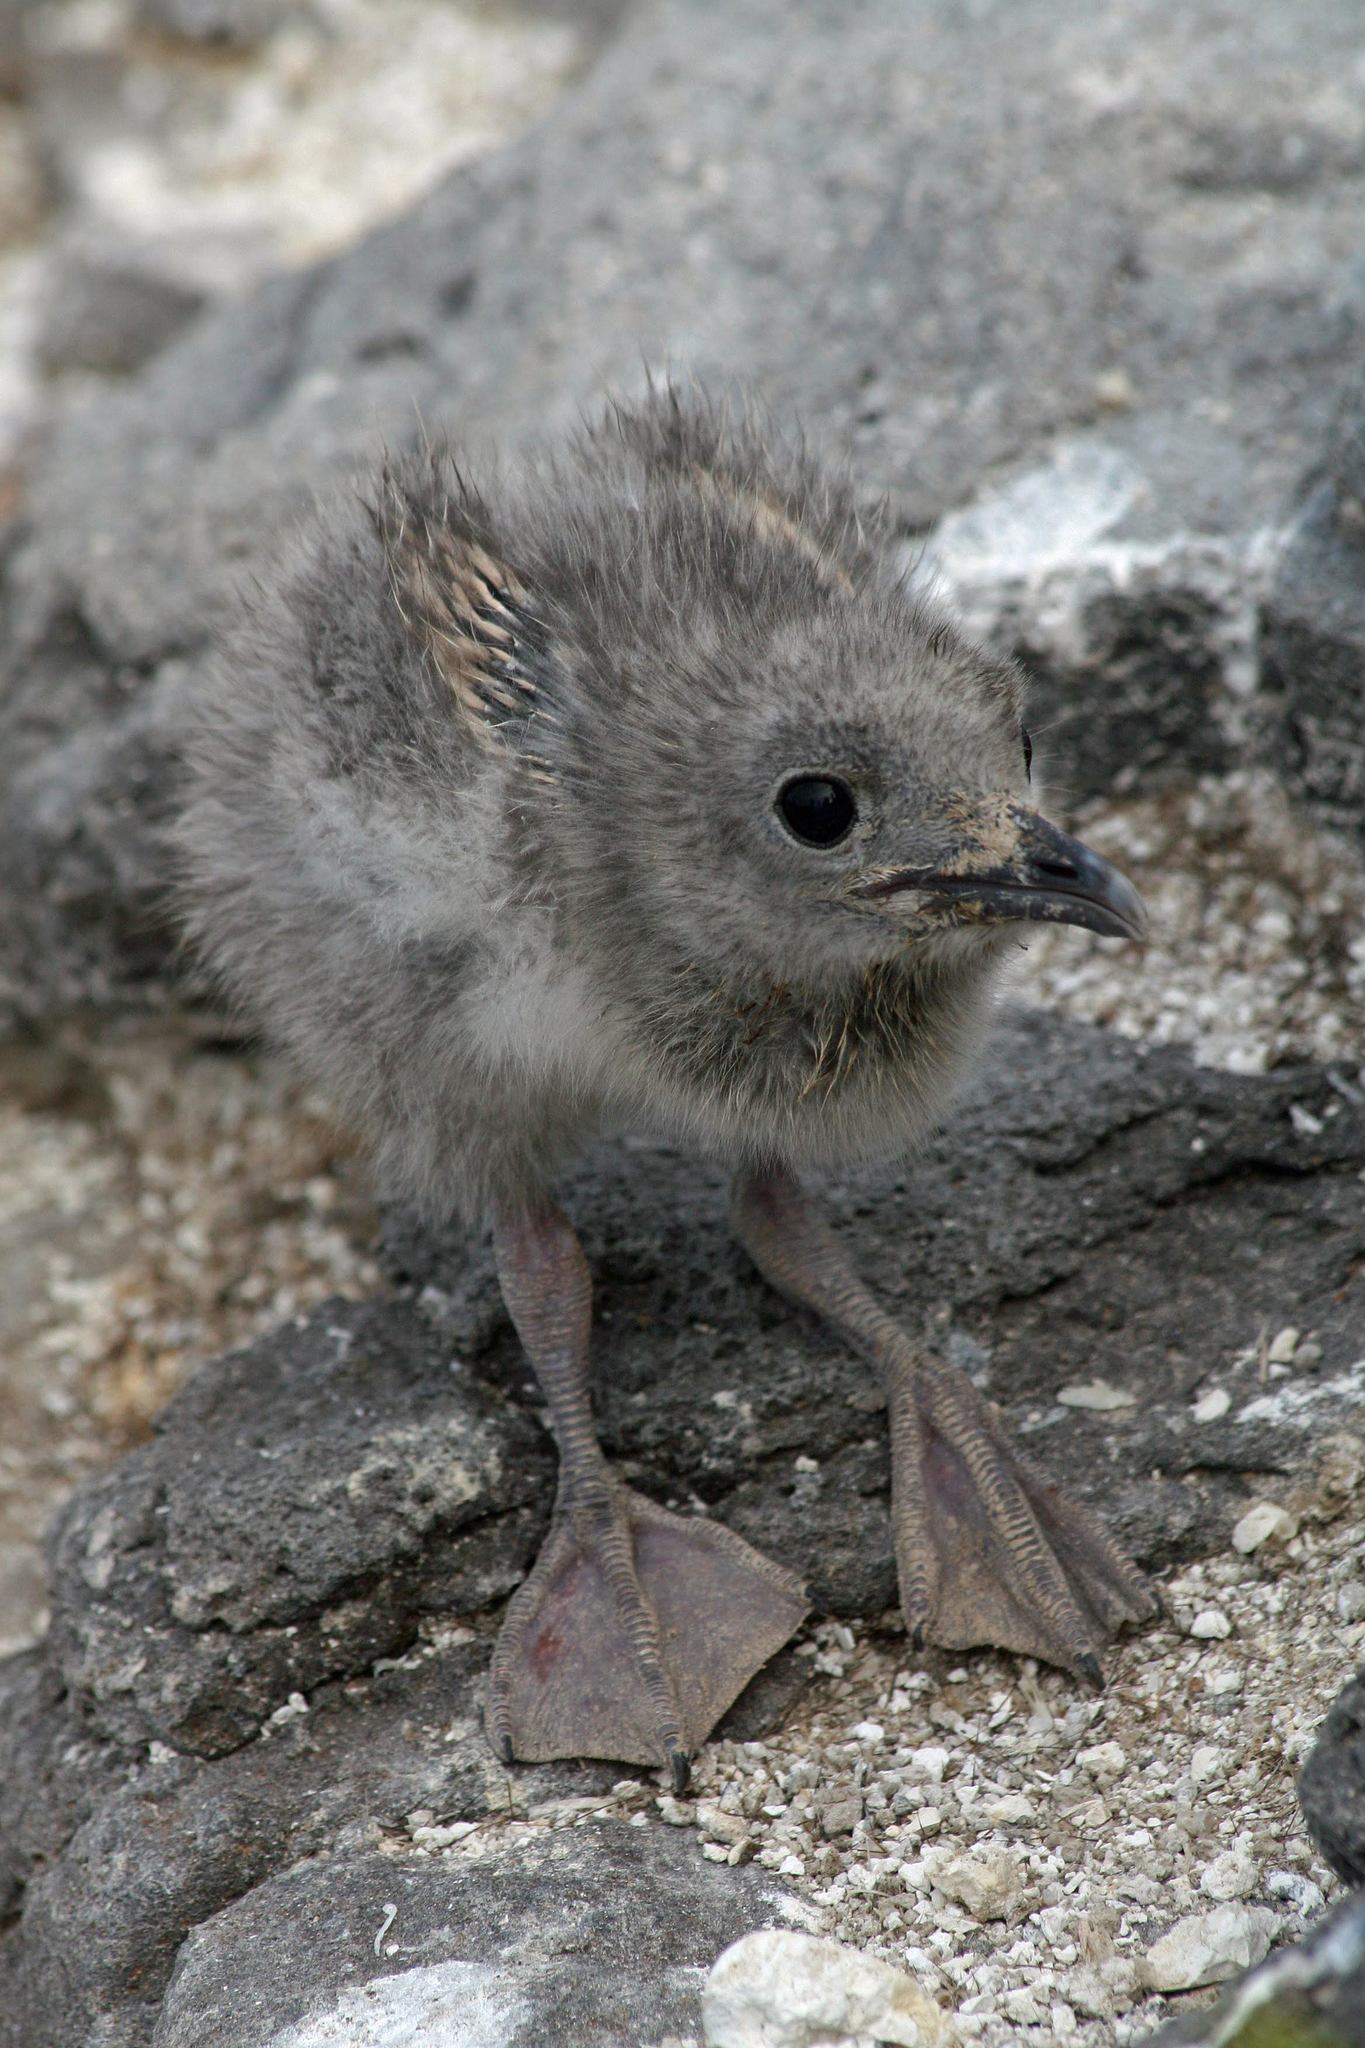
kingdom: Animalia
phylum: Chordata
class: Aves
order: Charadriiformes
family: Laridae
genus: Creagrus
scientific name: Creagrus furcatus
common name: Swallow-tailed gull
